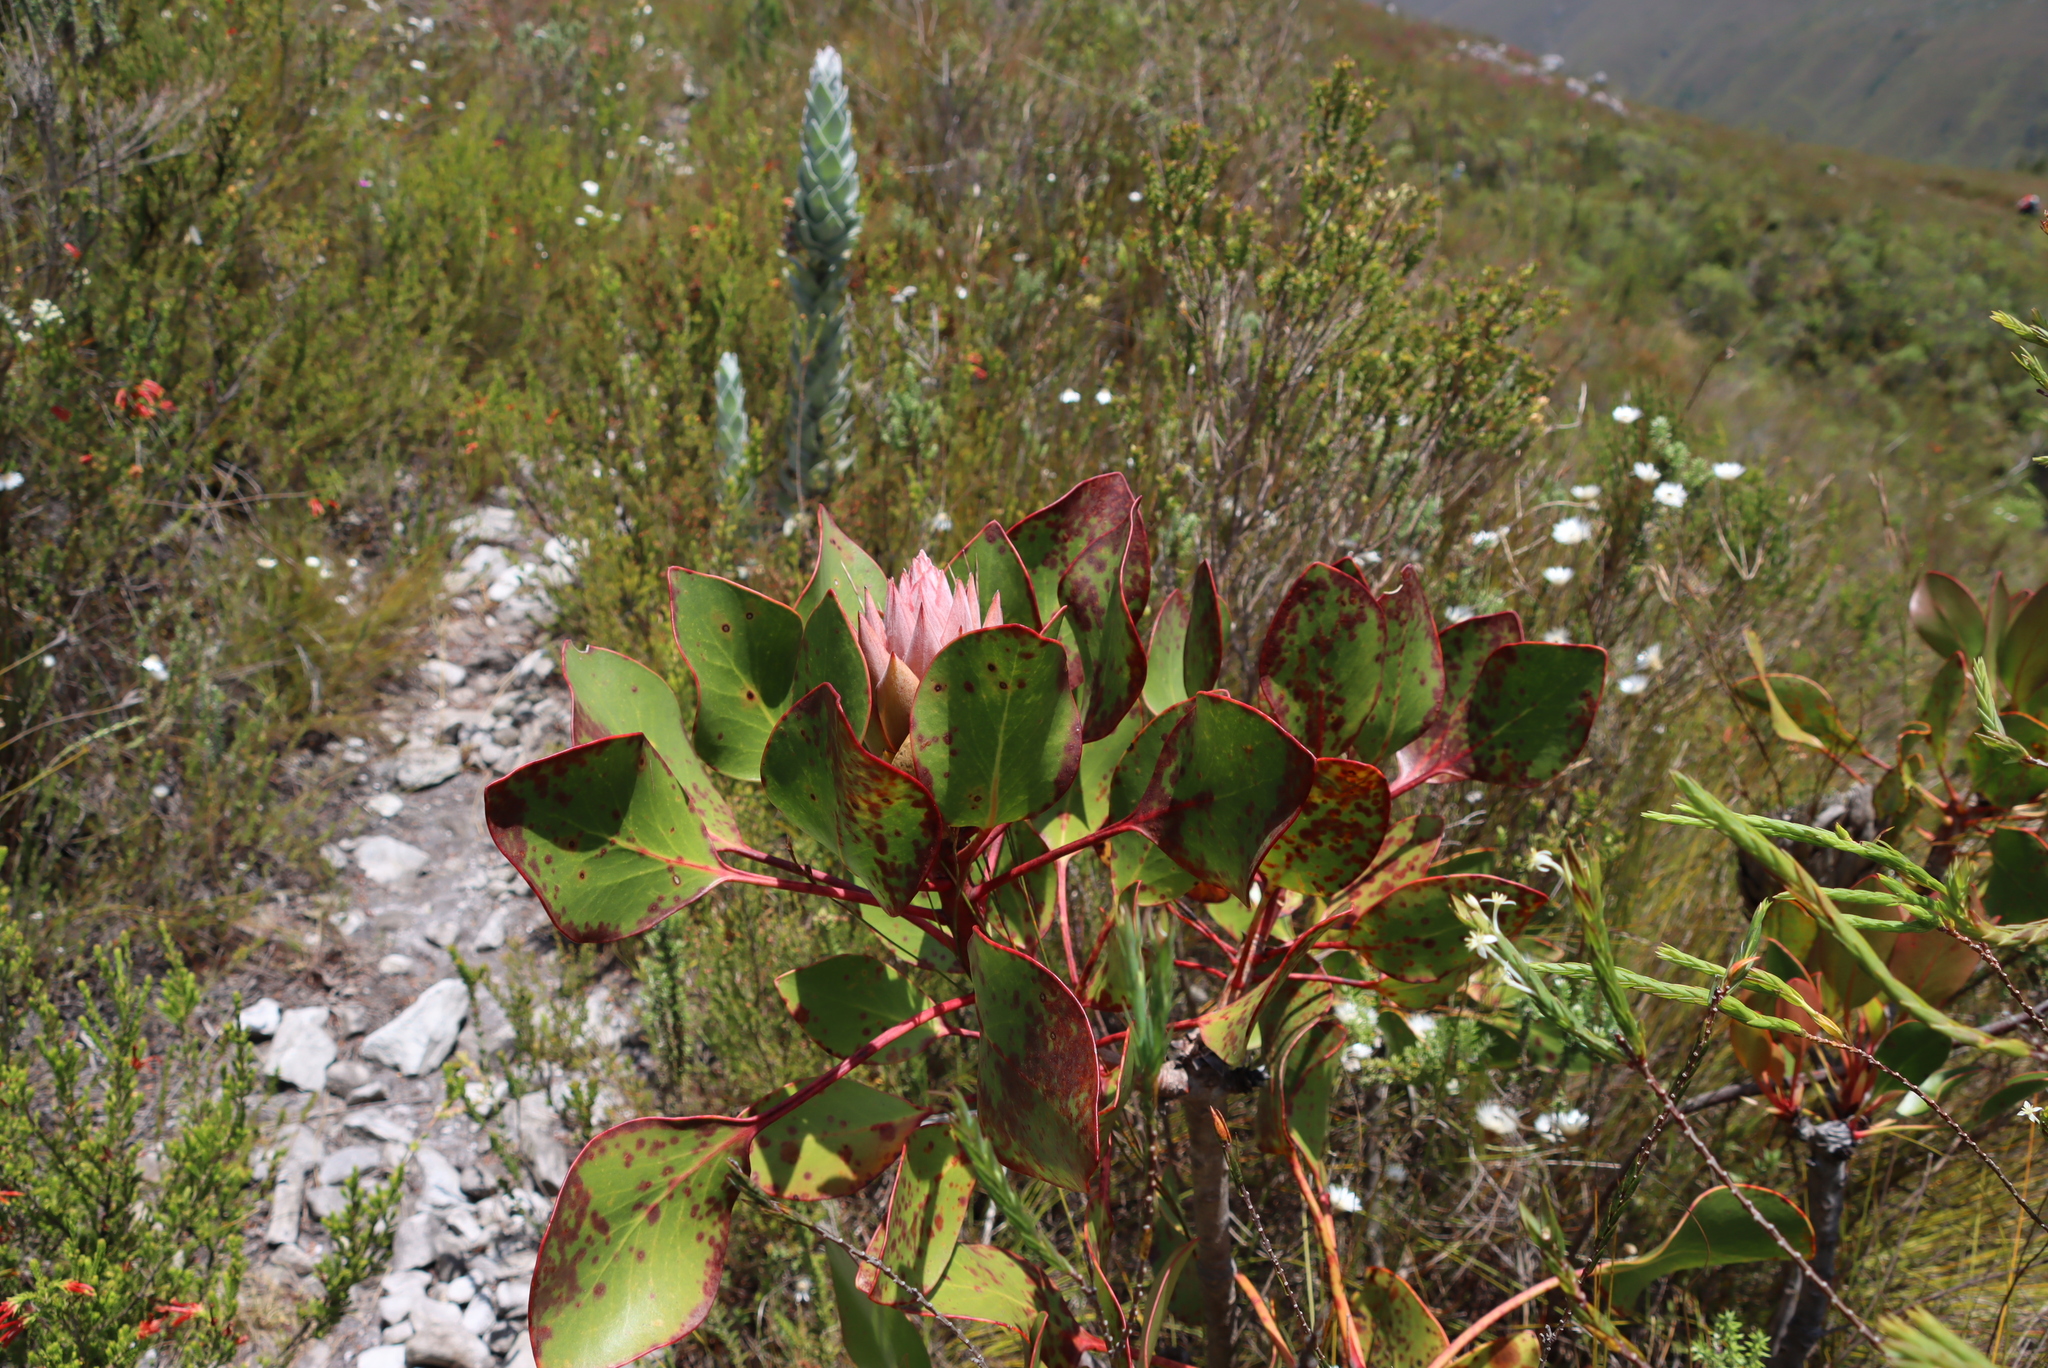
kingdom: Plantae
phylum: Tracheophyta
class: Magnoliopsida
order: Proteales
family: Proteaceae
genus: Protea
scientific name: Protea cynaroides
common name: King protea
